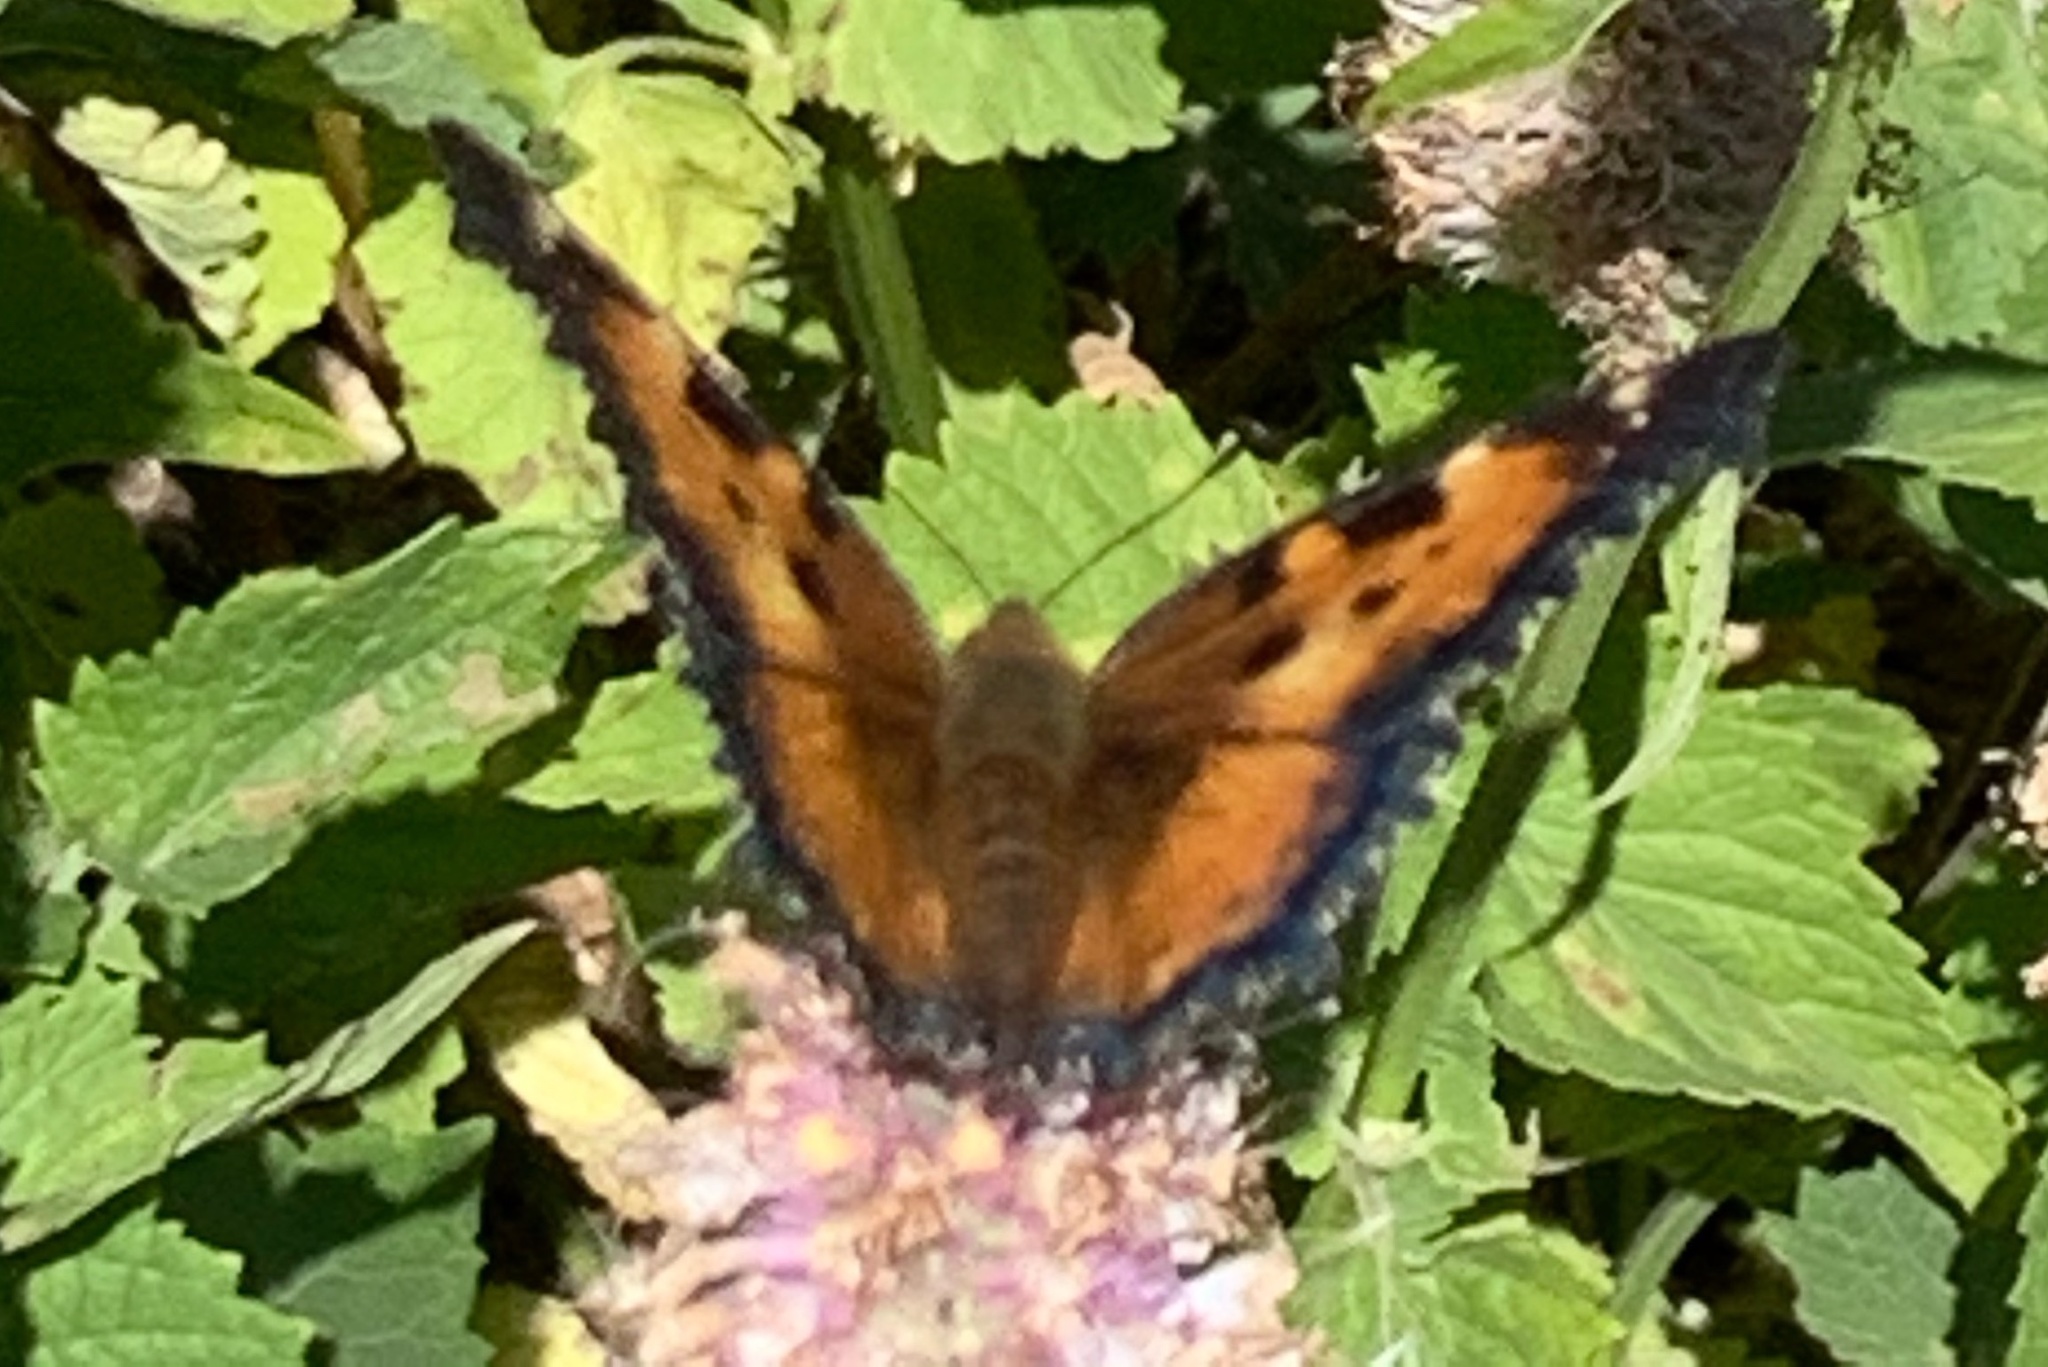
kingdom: Animalia
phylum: Arthropoda
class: Insecta
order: Lepidoptera
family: Nymphalidae
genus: Nymphalis
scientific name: Nymphalis californica
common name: California tortoiseshell
